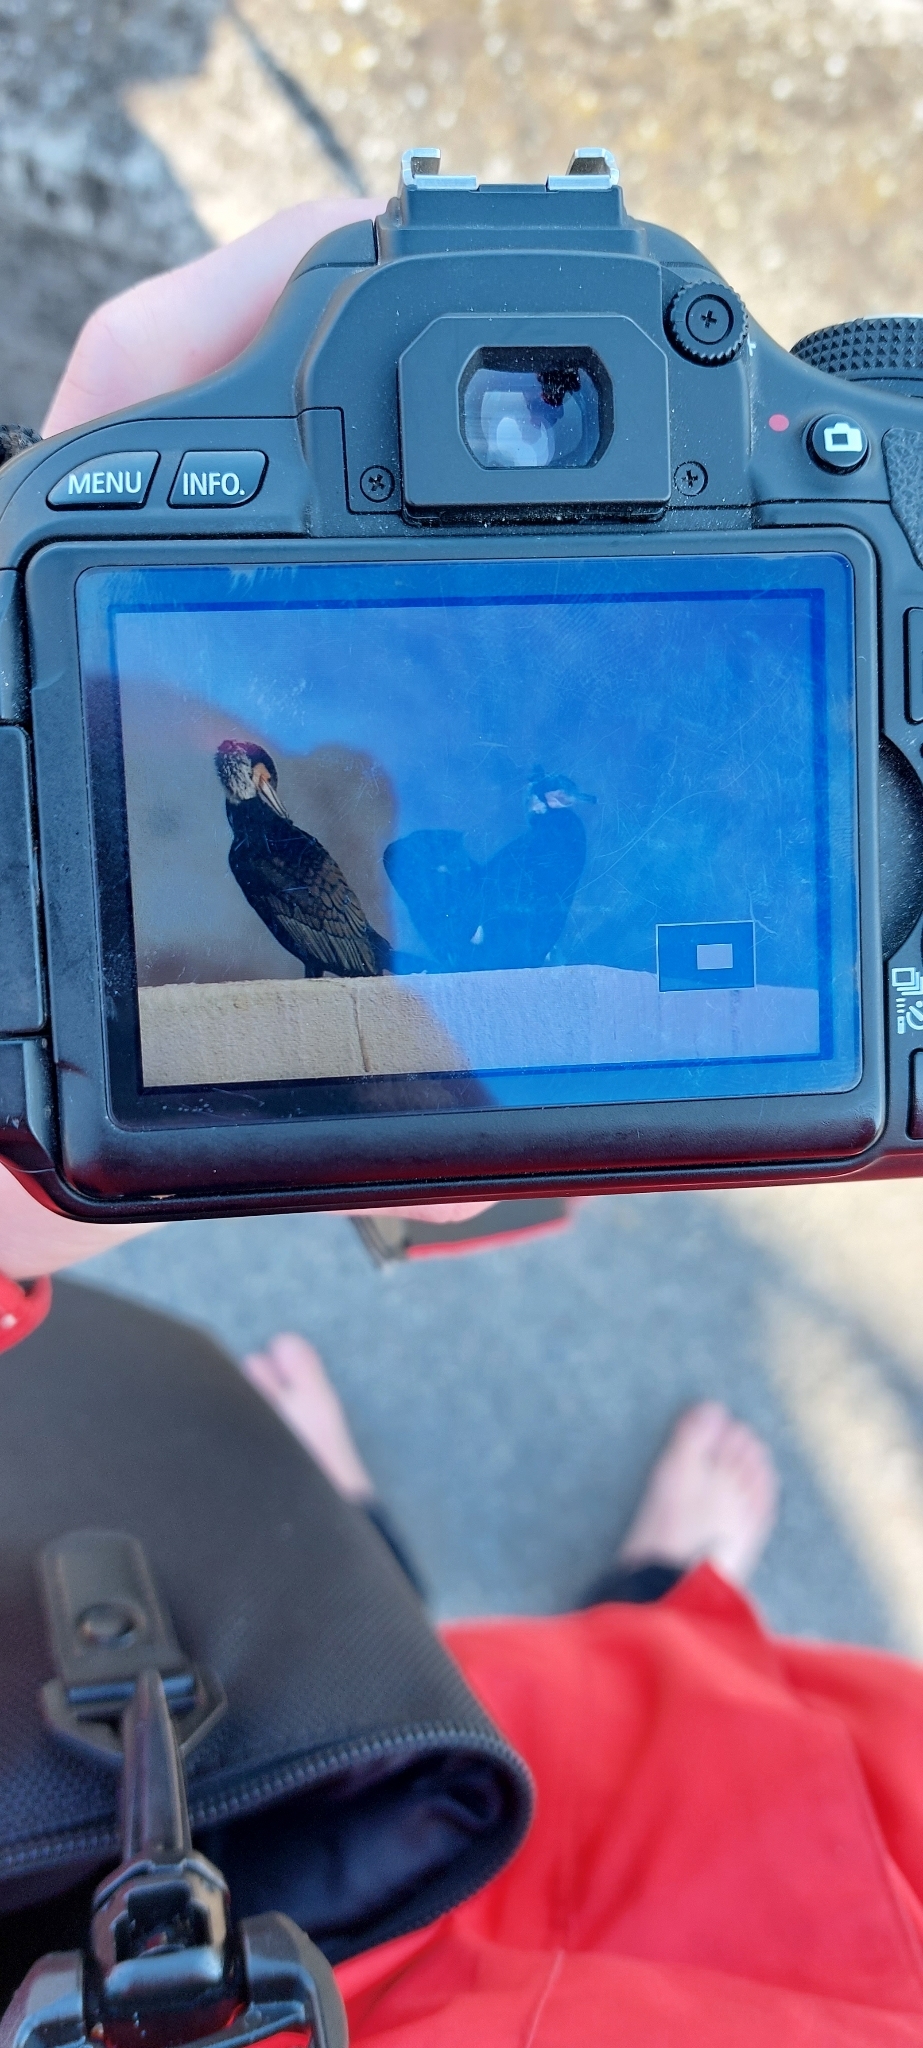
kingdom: Animalia
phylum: Chordata
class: Aves
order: Suliformes
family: Phalacrocoracidae
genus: Phalacrocorax
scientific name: Phalacrocorax carbo
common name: Great cormorant
